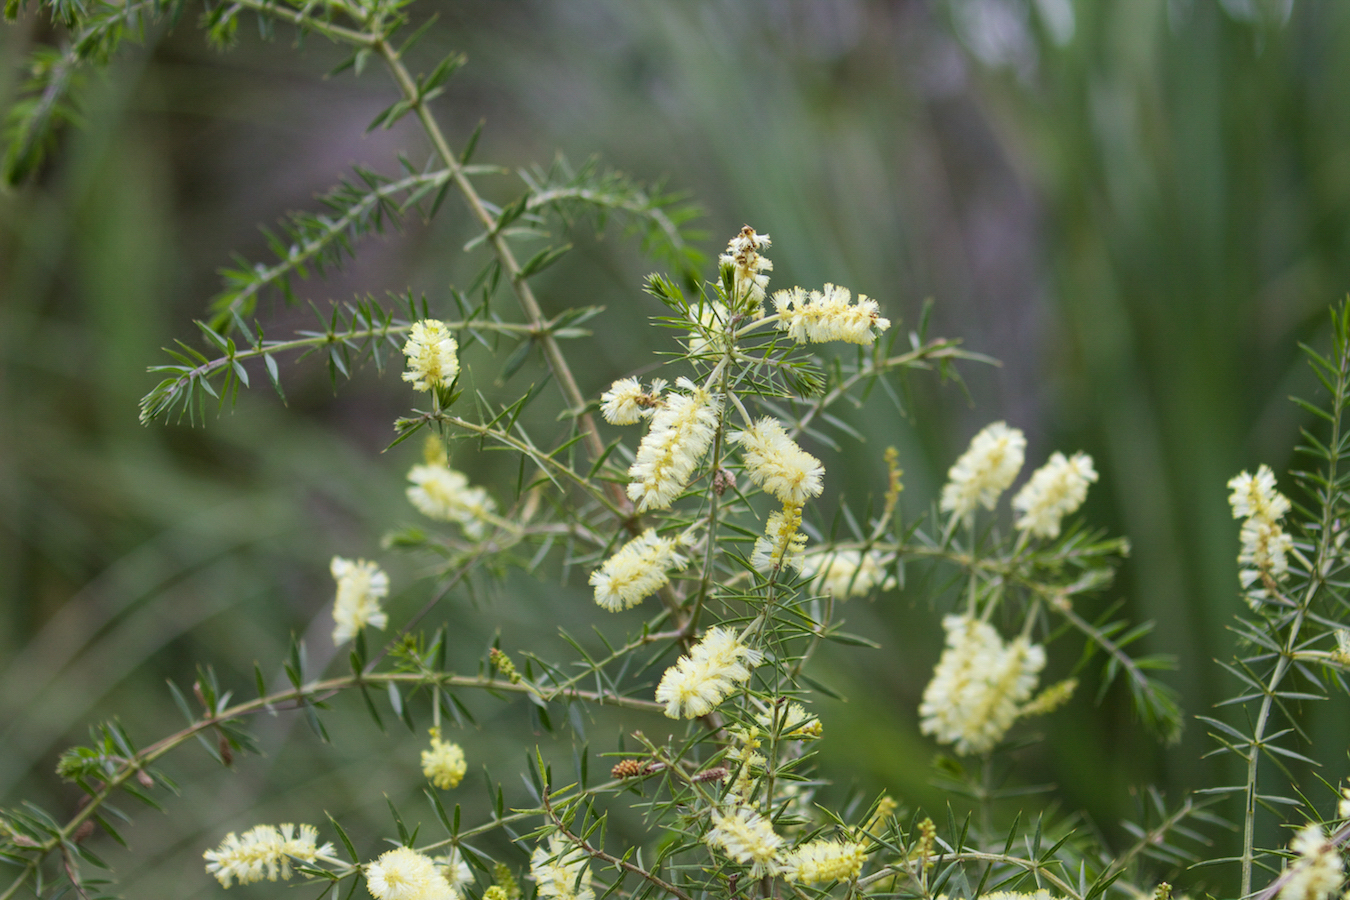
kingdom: Plantae
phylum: Tracheophyta
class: Magnoliopsida
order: Fabales
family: Fabaceae
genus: Acacia
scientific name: Acacia verticillata
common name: Prickly moses
